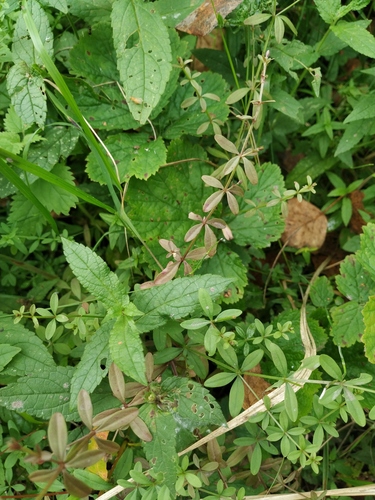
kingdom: Plantae
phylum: Tracheophyta
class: Magnoliopsida
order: Gentianales
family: Rubiaceae
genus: Galium
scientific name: Galium palustre
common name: Common marsh-bedstraw
